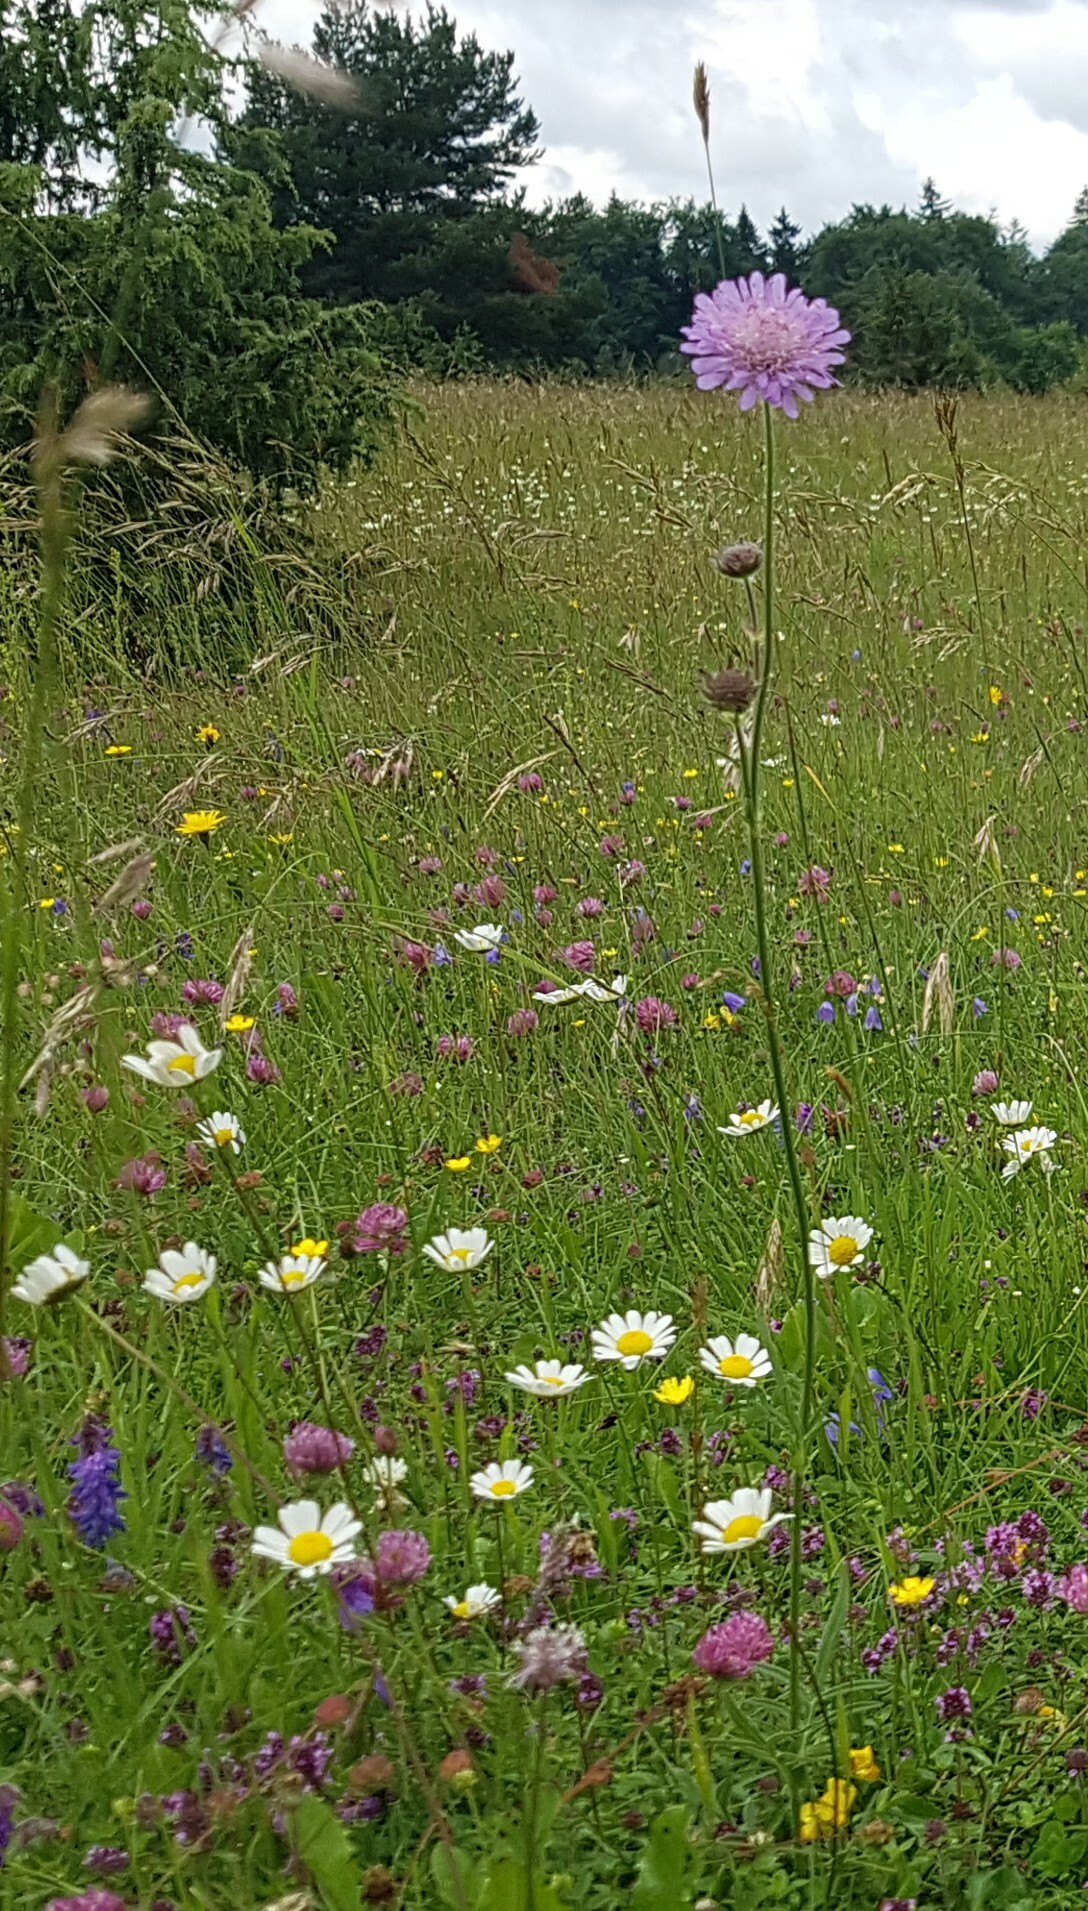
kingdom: Plantae
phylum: Tracheophyta
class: Magnoliopsida
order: Dipsacales
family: Caprifoliaceae
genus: Knautia
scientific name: Knautia arvensis
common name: Field scabiosa
